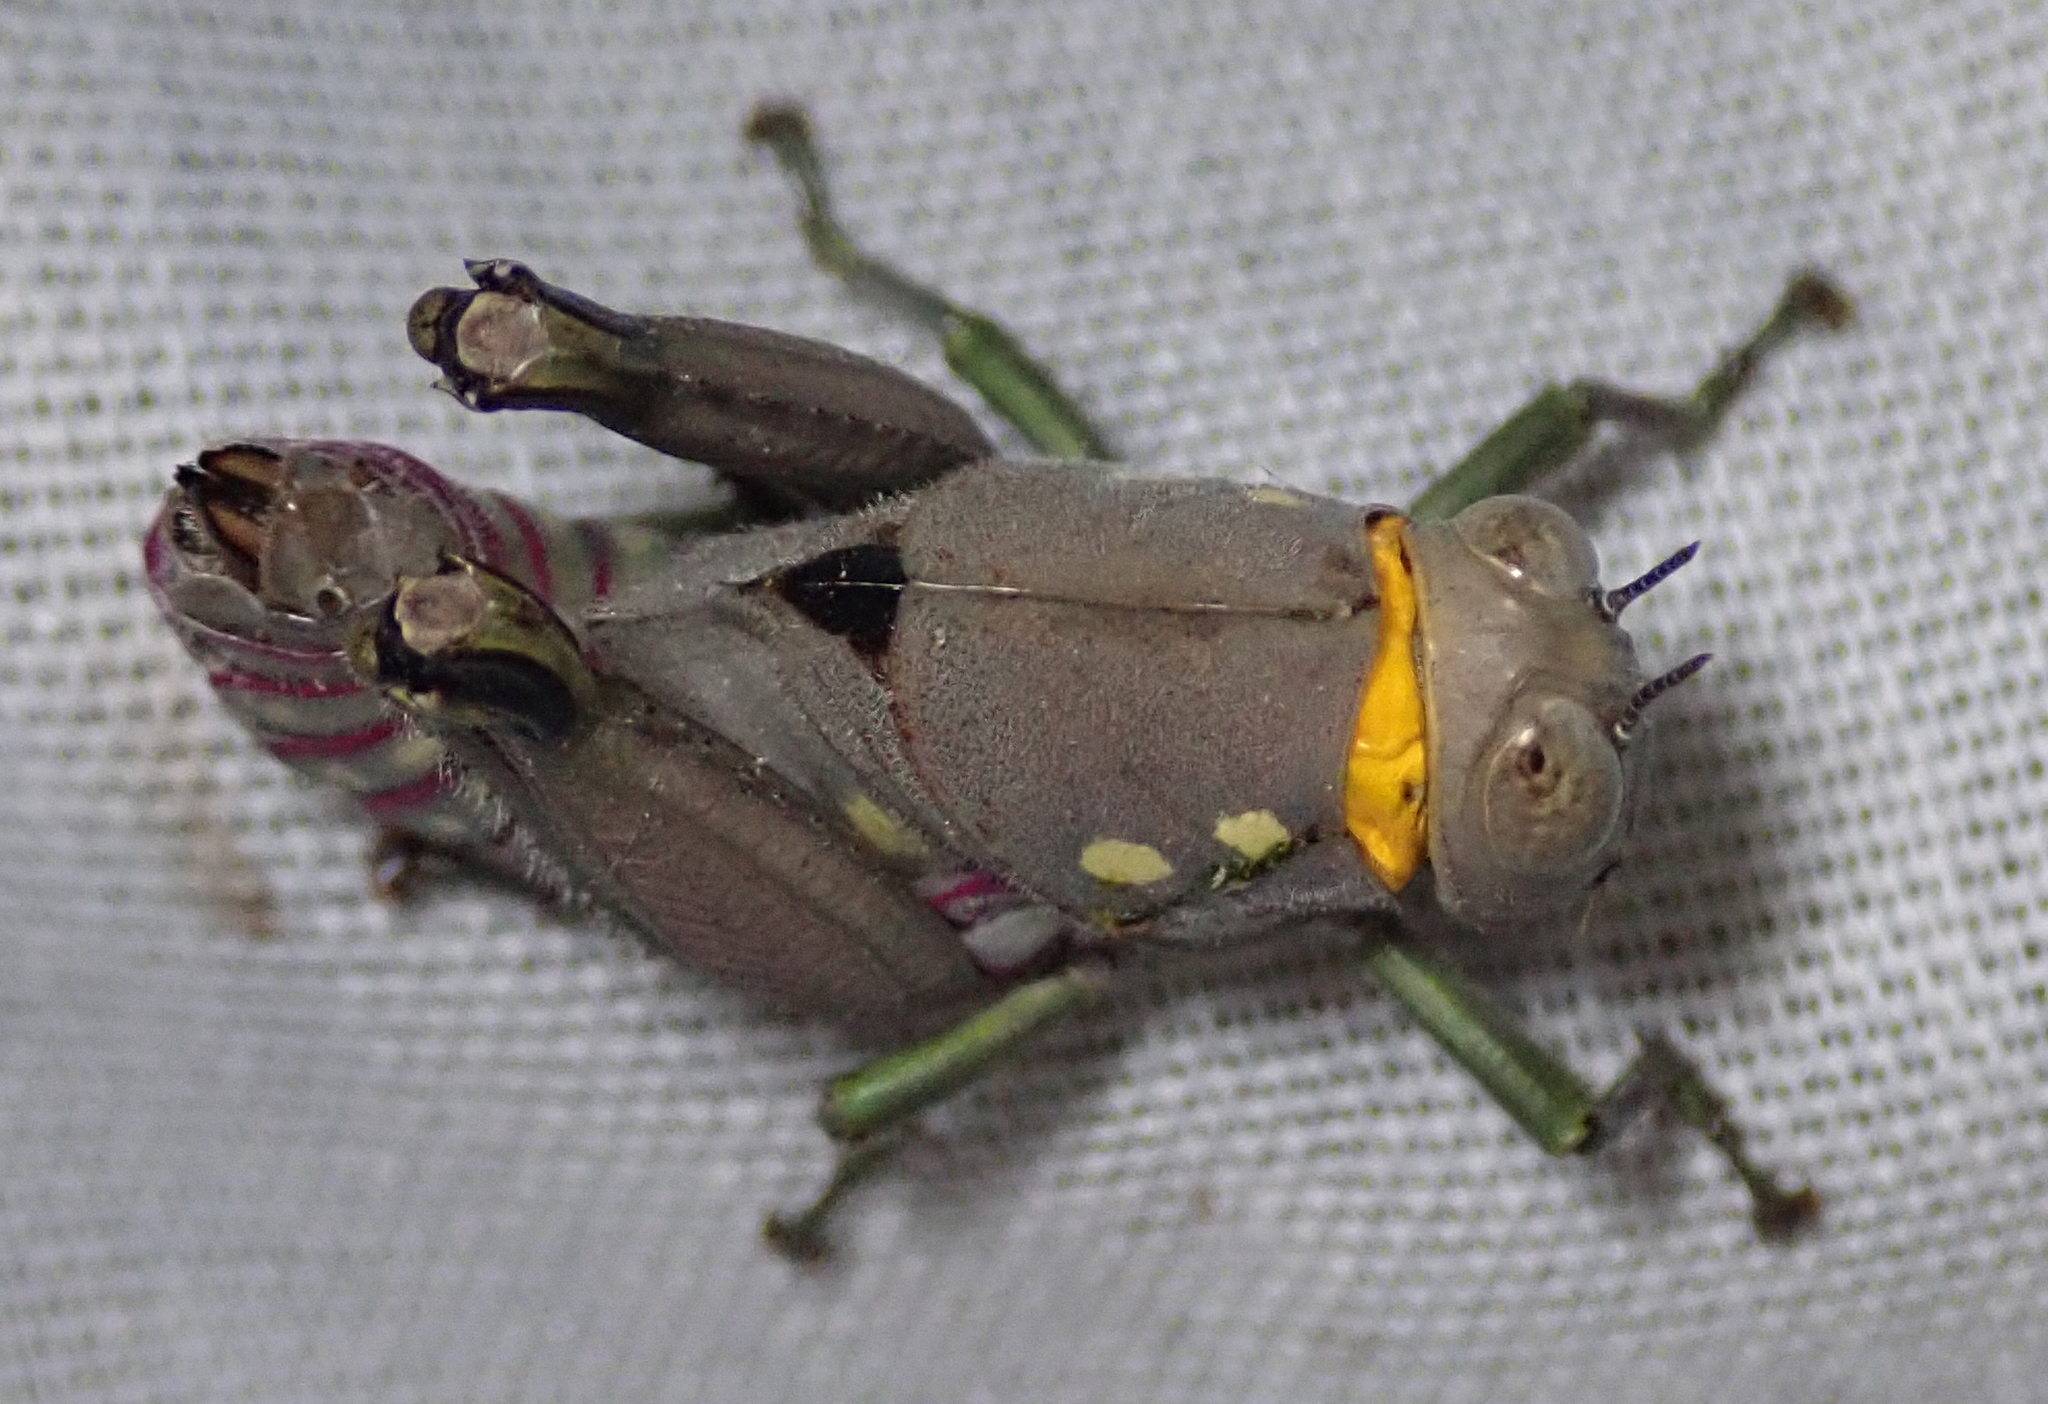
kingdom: Animalia
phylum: Arthropoda
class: Insecta
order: Orthoptera
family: Thericleidae
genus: Parathericles
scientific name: Parathericles elephantulus
